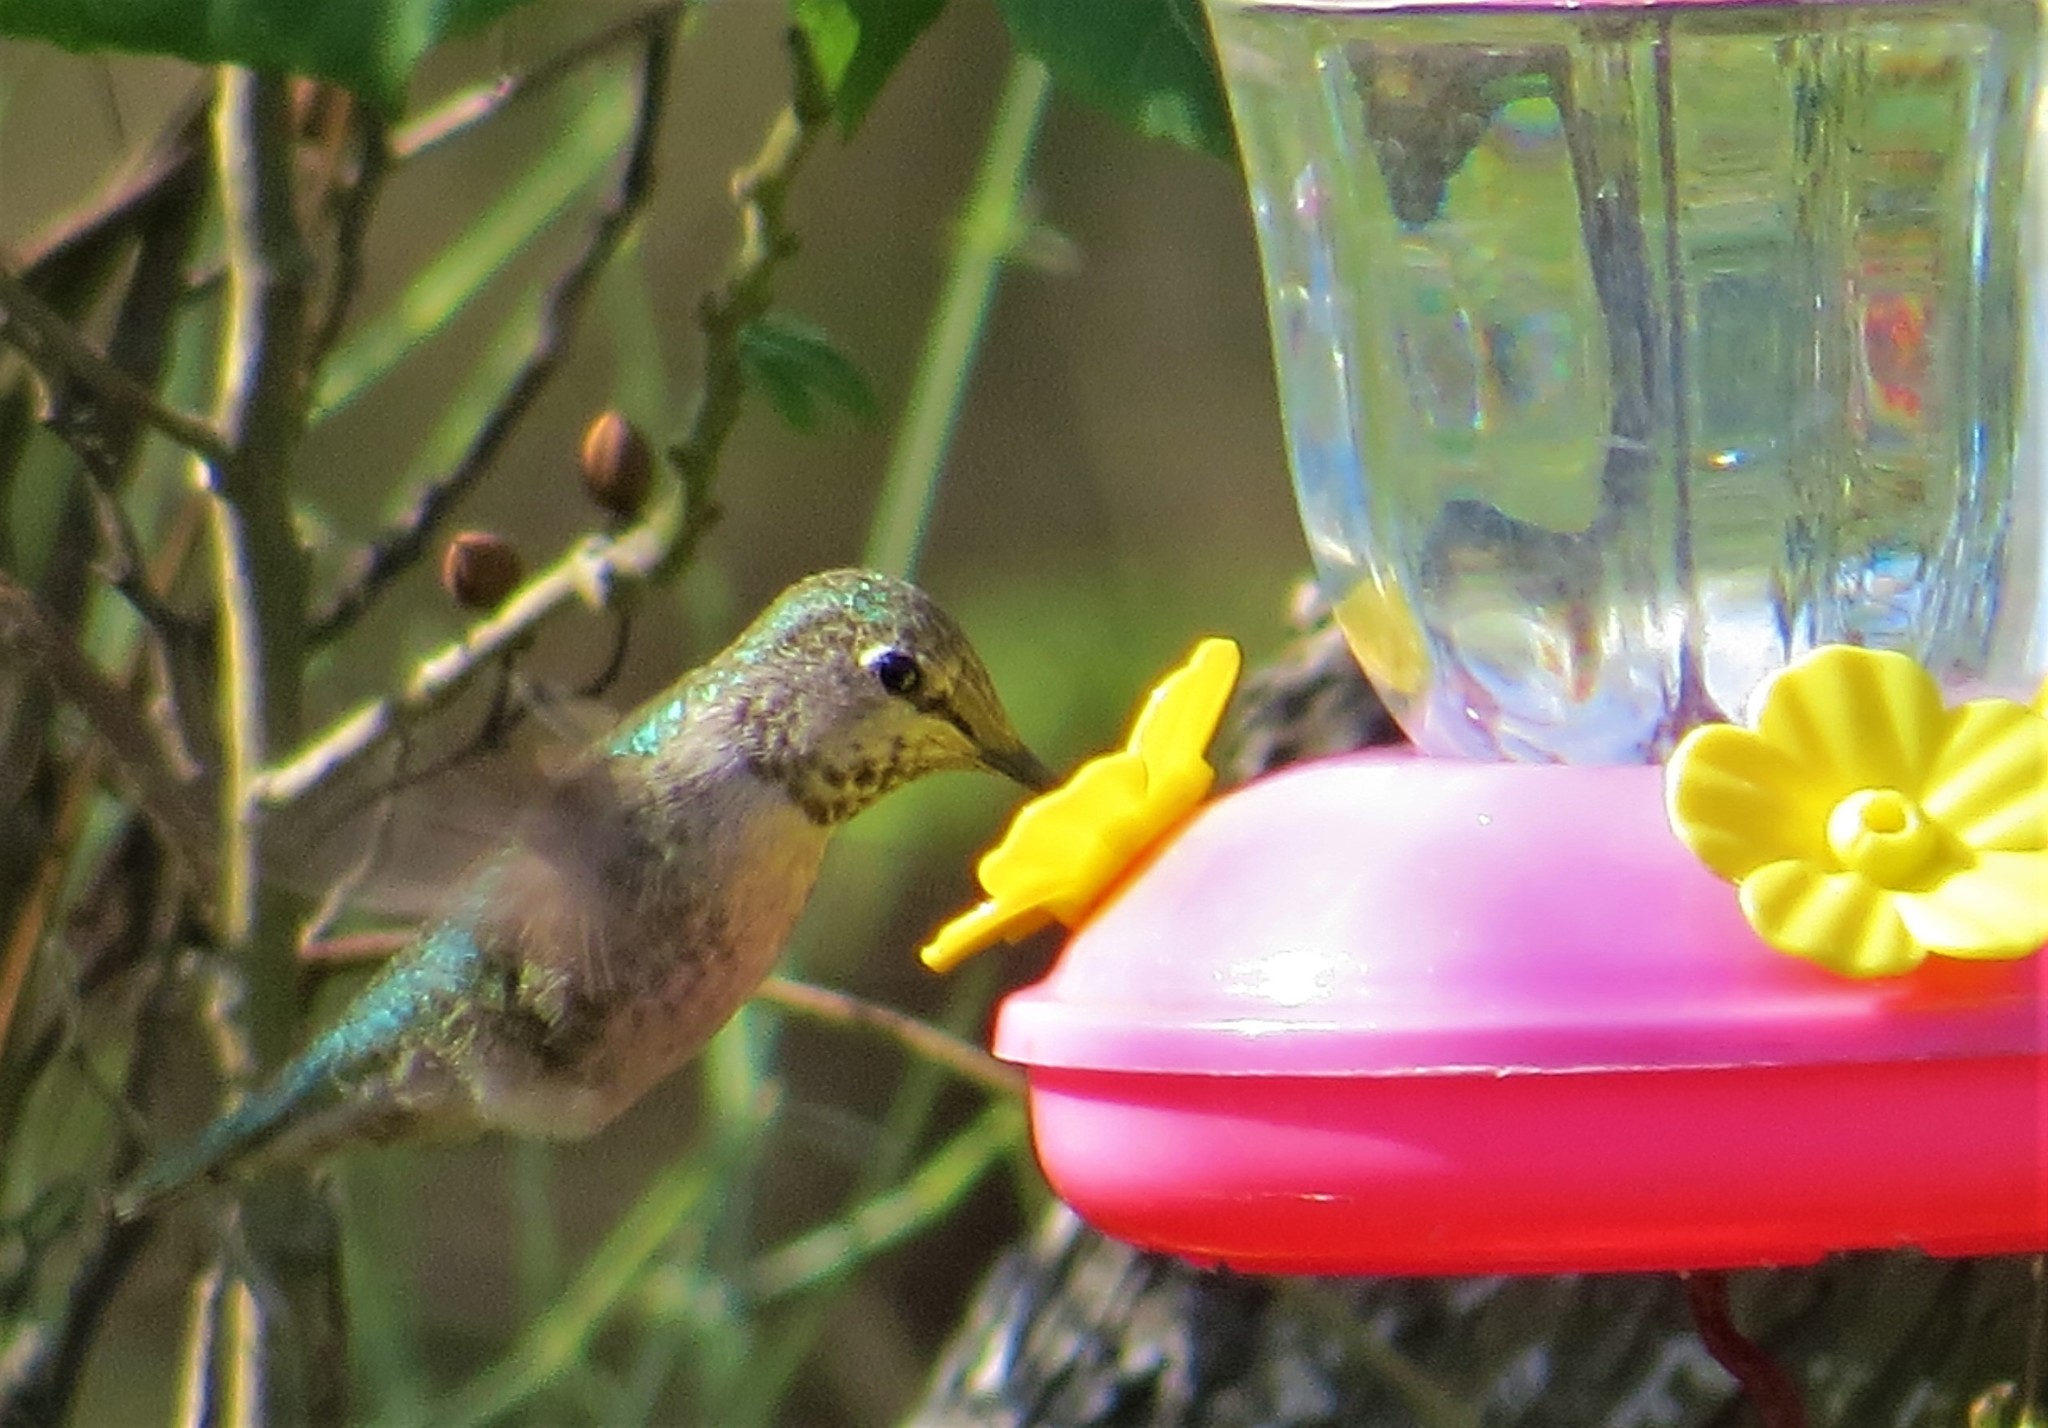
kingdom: Animalia
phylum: Chordata
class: Aves
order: Apodiformes
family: Trochilidae
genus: Calypte
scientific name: Calypte anna
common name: Anna's hummingbird
